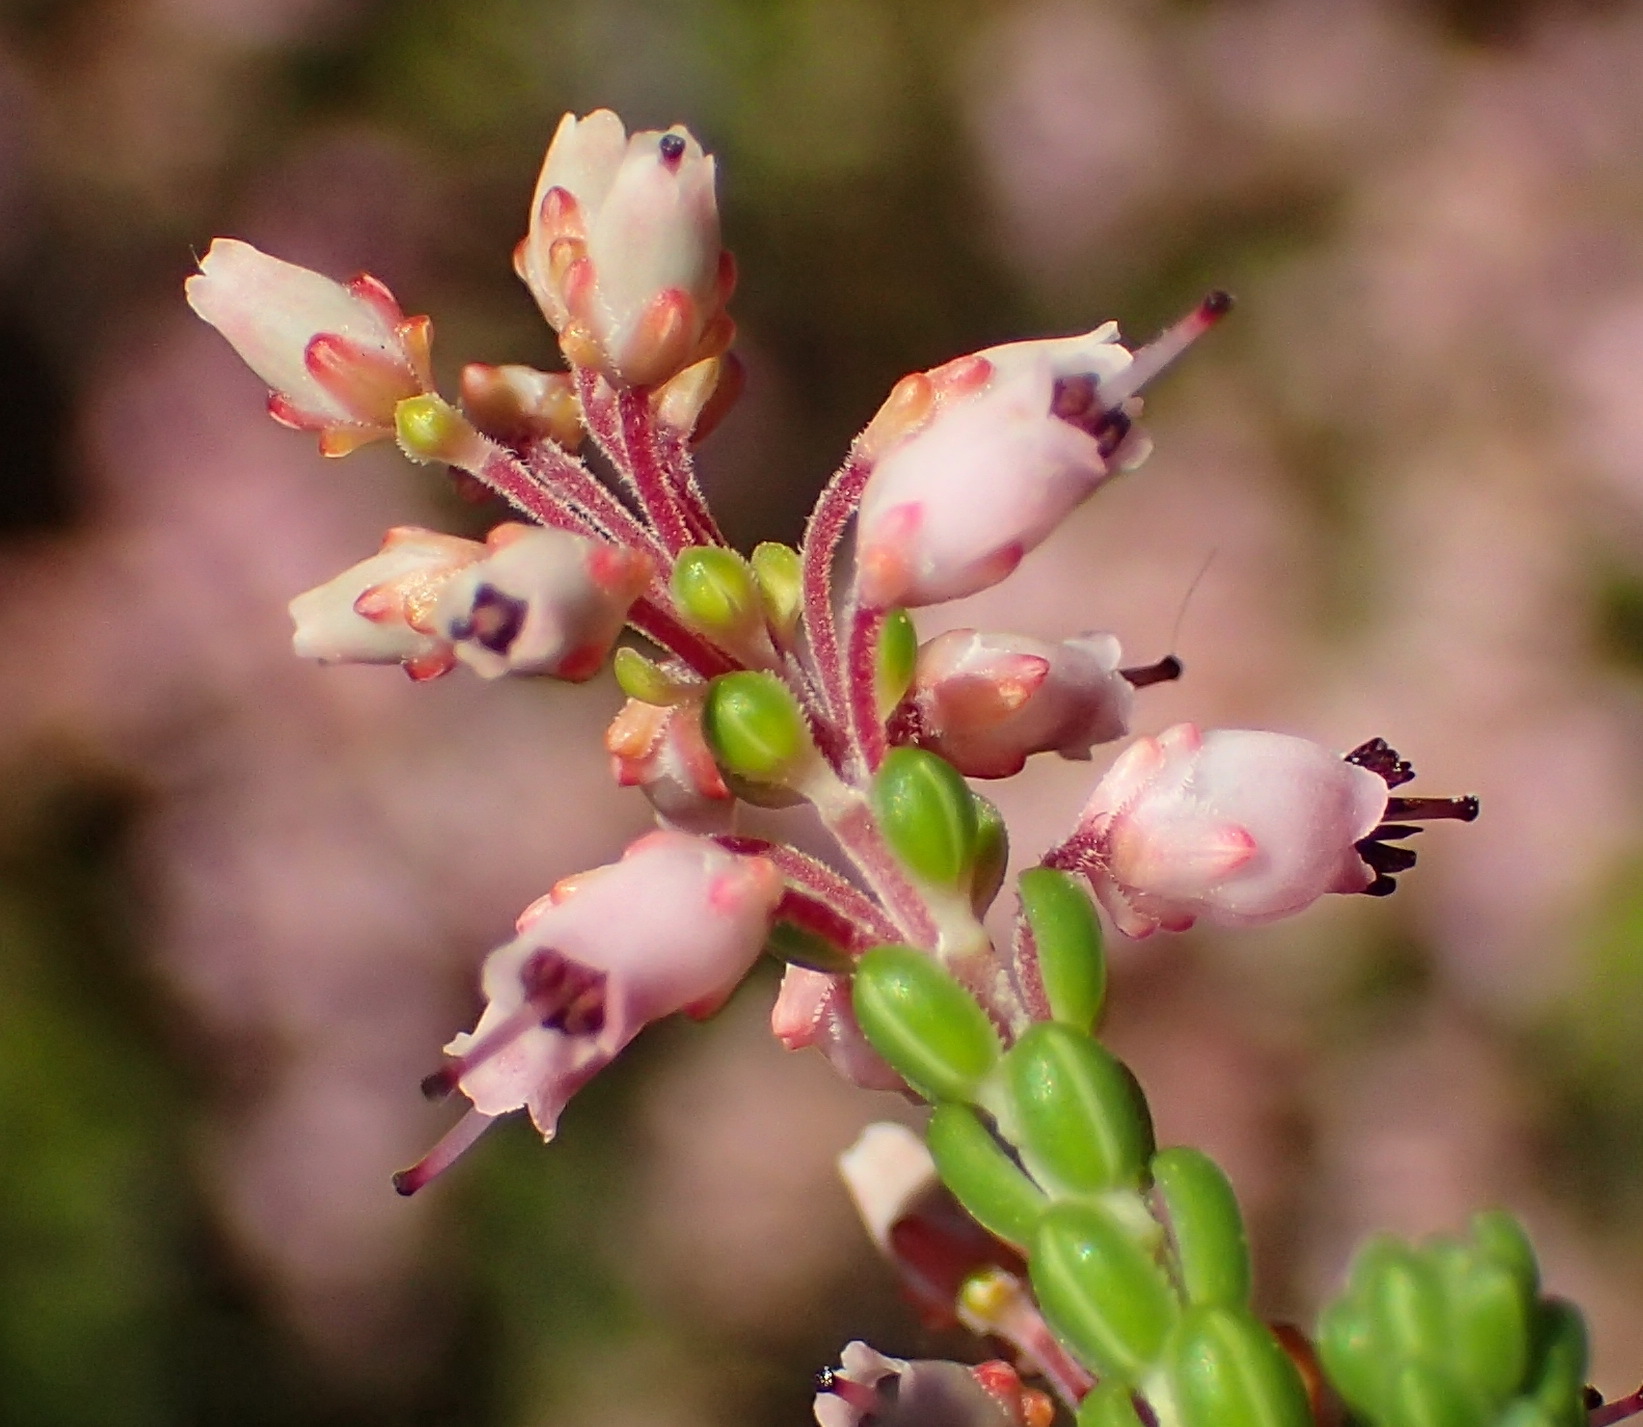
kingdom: Plantae
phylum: Tracheophyta
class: Magnoliopsida
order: Ericales
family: Ericaceae
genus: Erica
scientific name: Erica petraea
